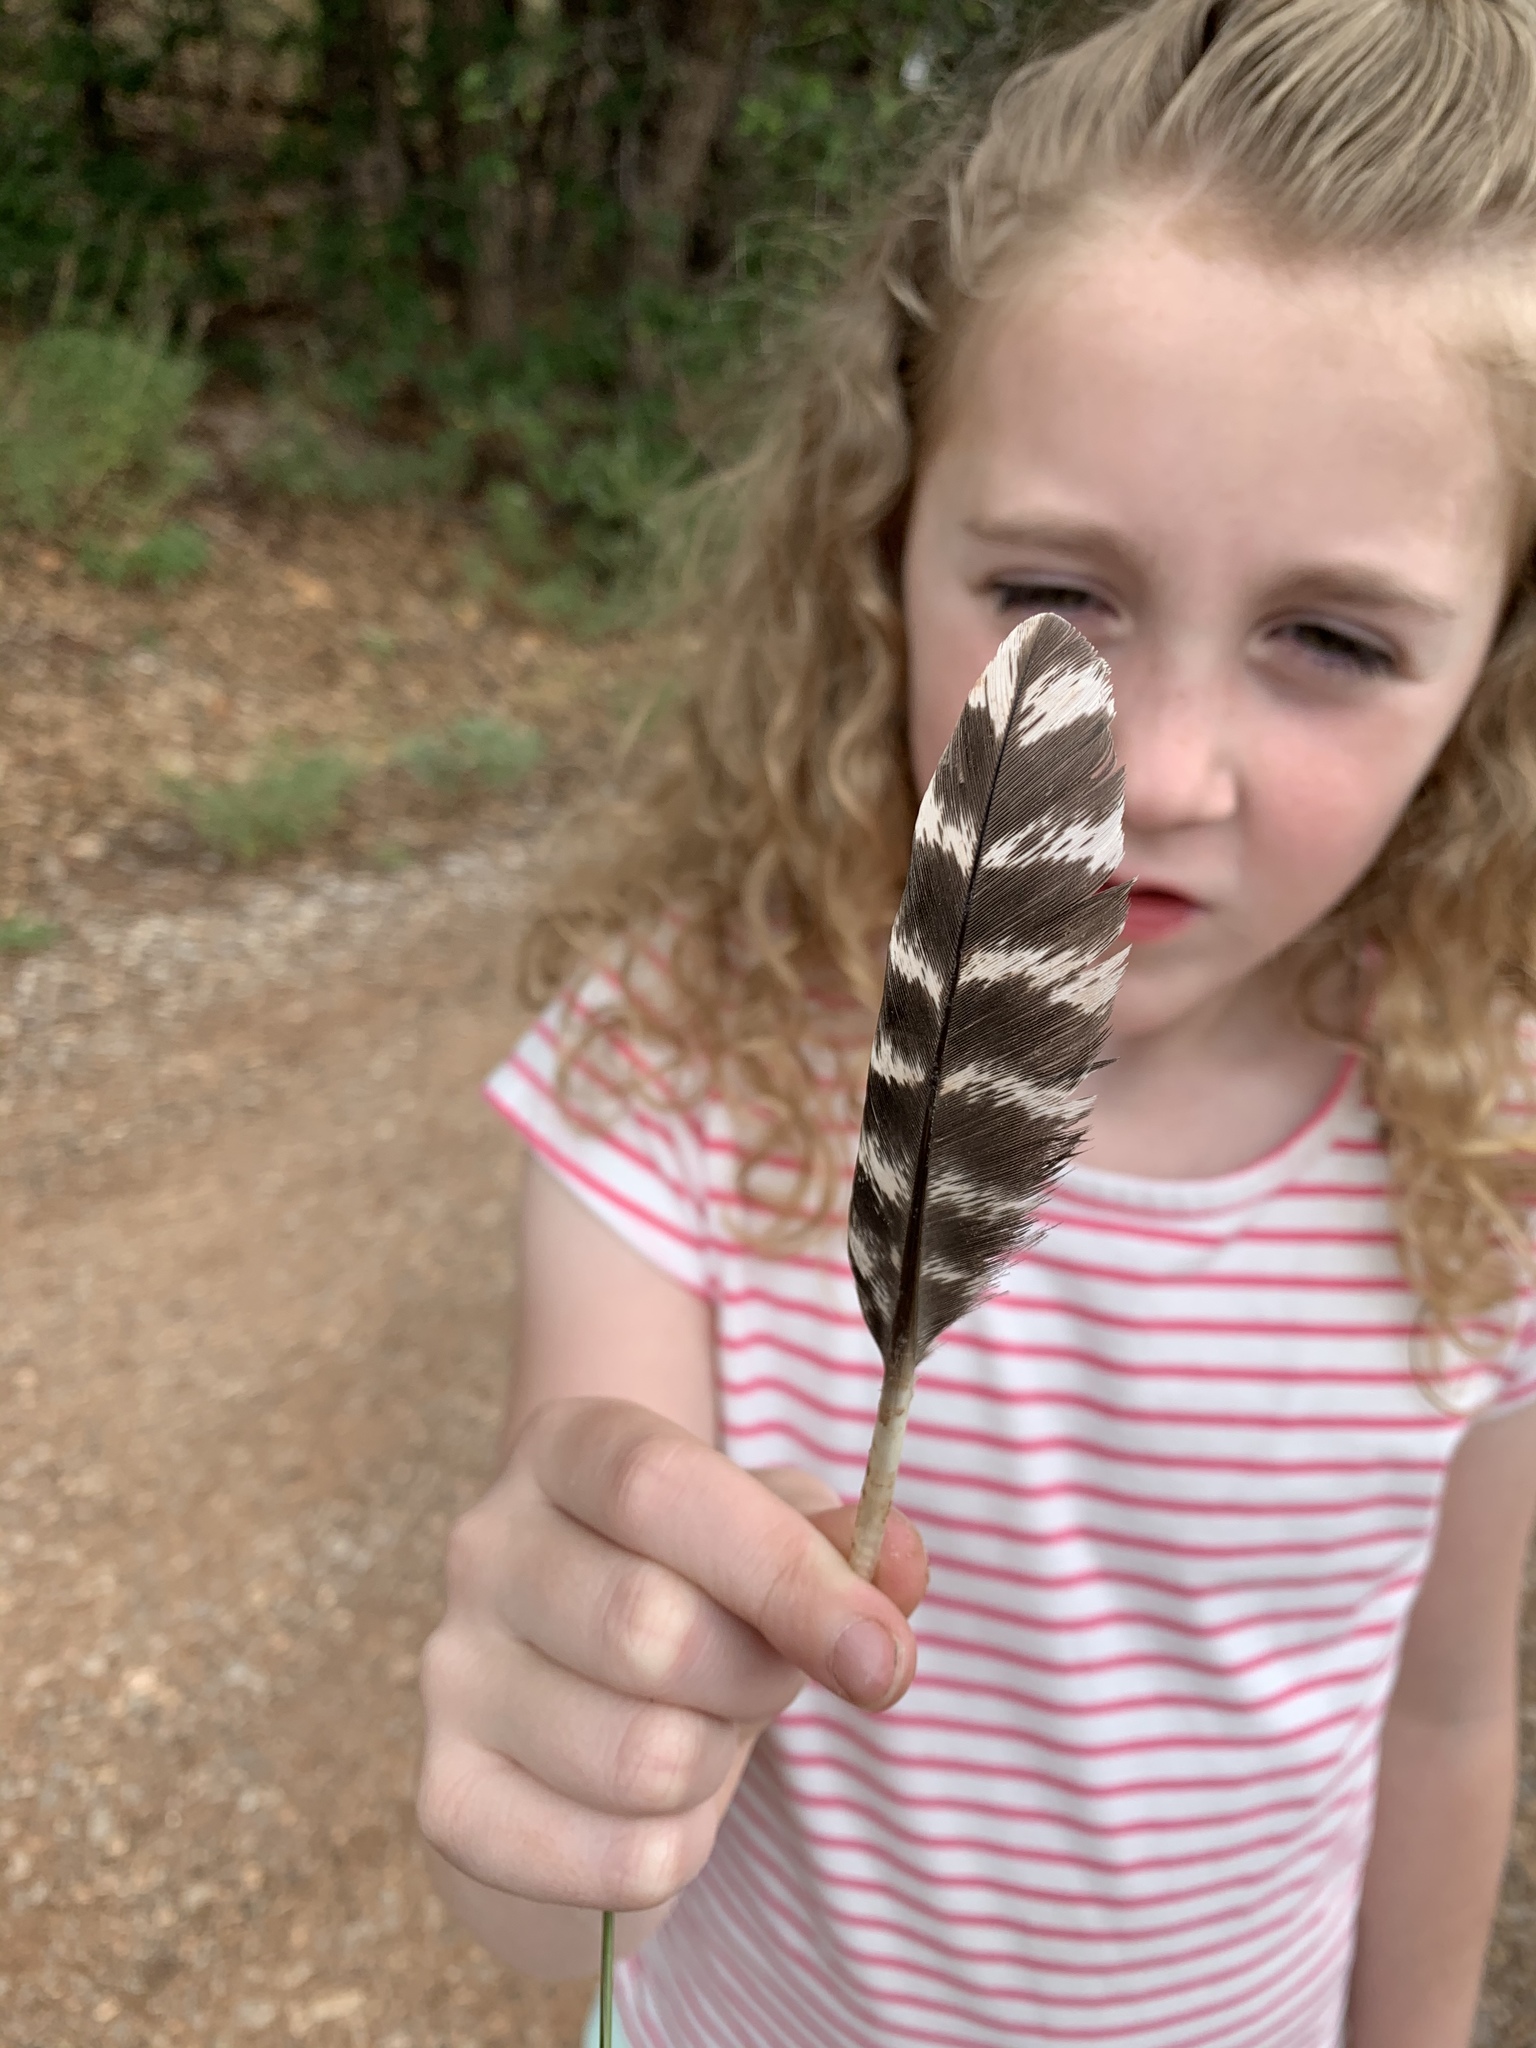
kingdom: Animalia
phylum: Chordata
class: Aves
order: Galliformes
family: Phasianidae
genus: Meleagris
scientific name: Meleagris gallopavo
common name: Wild turkey
